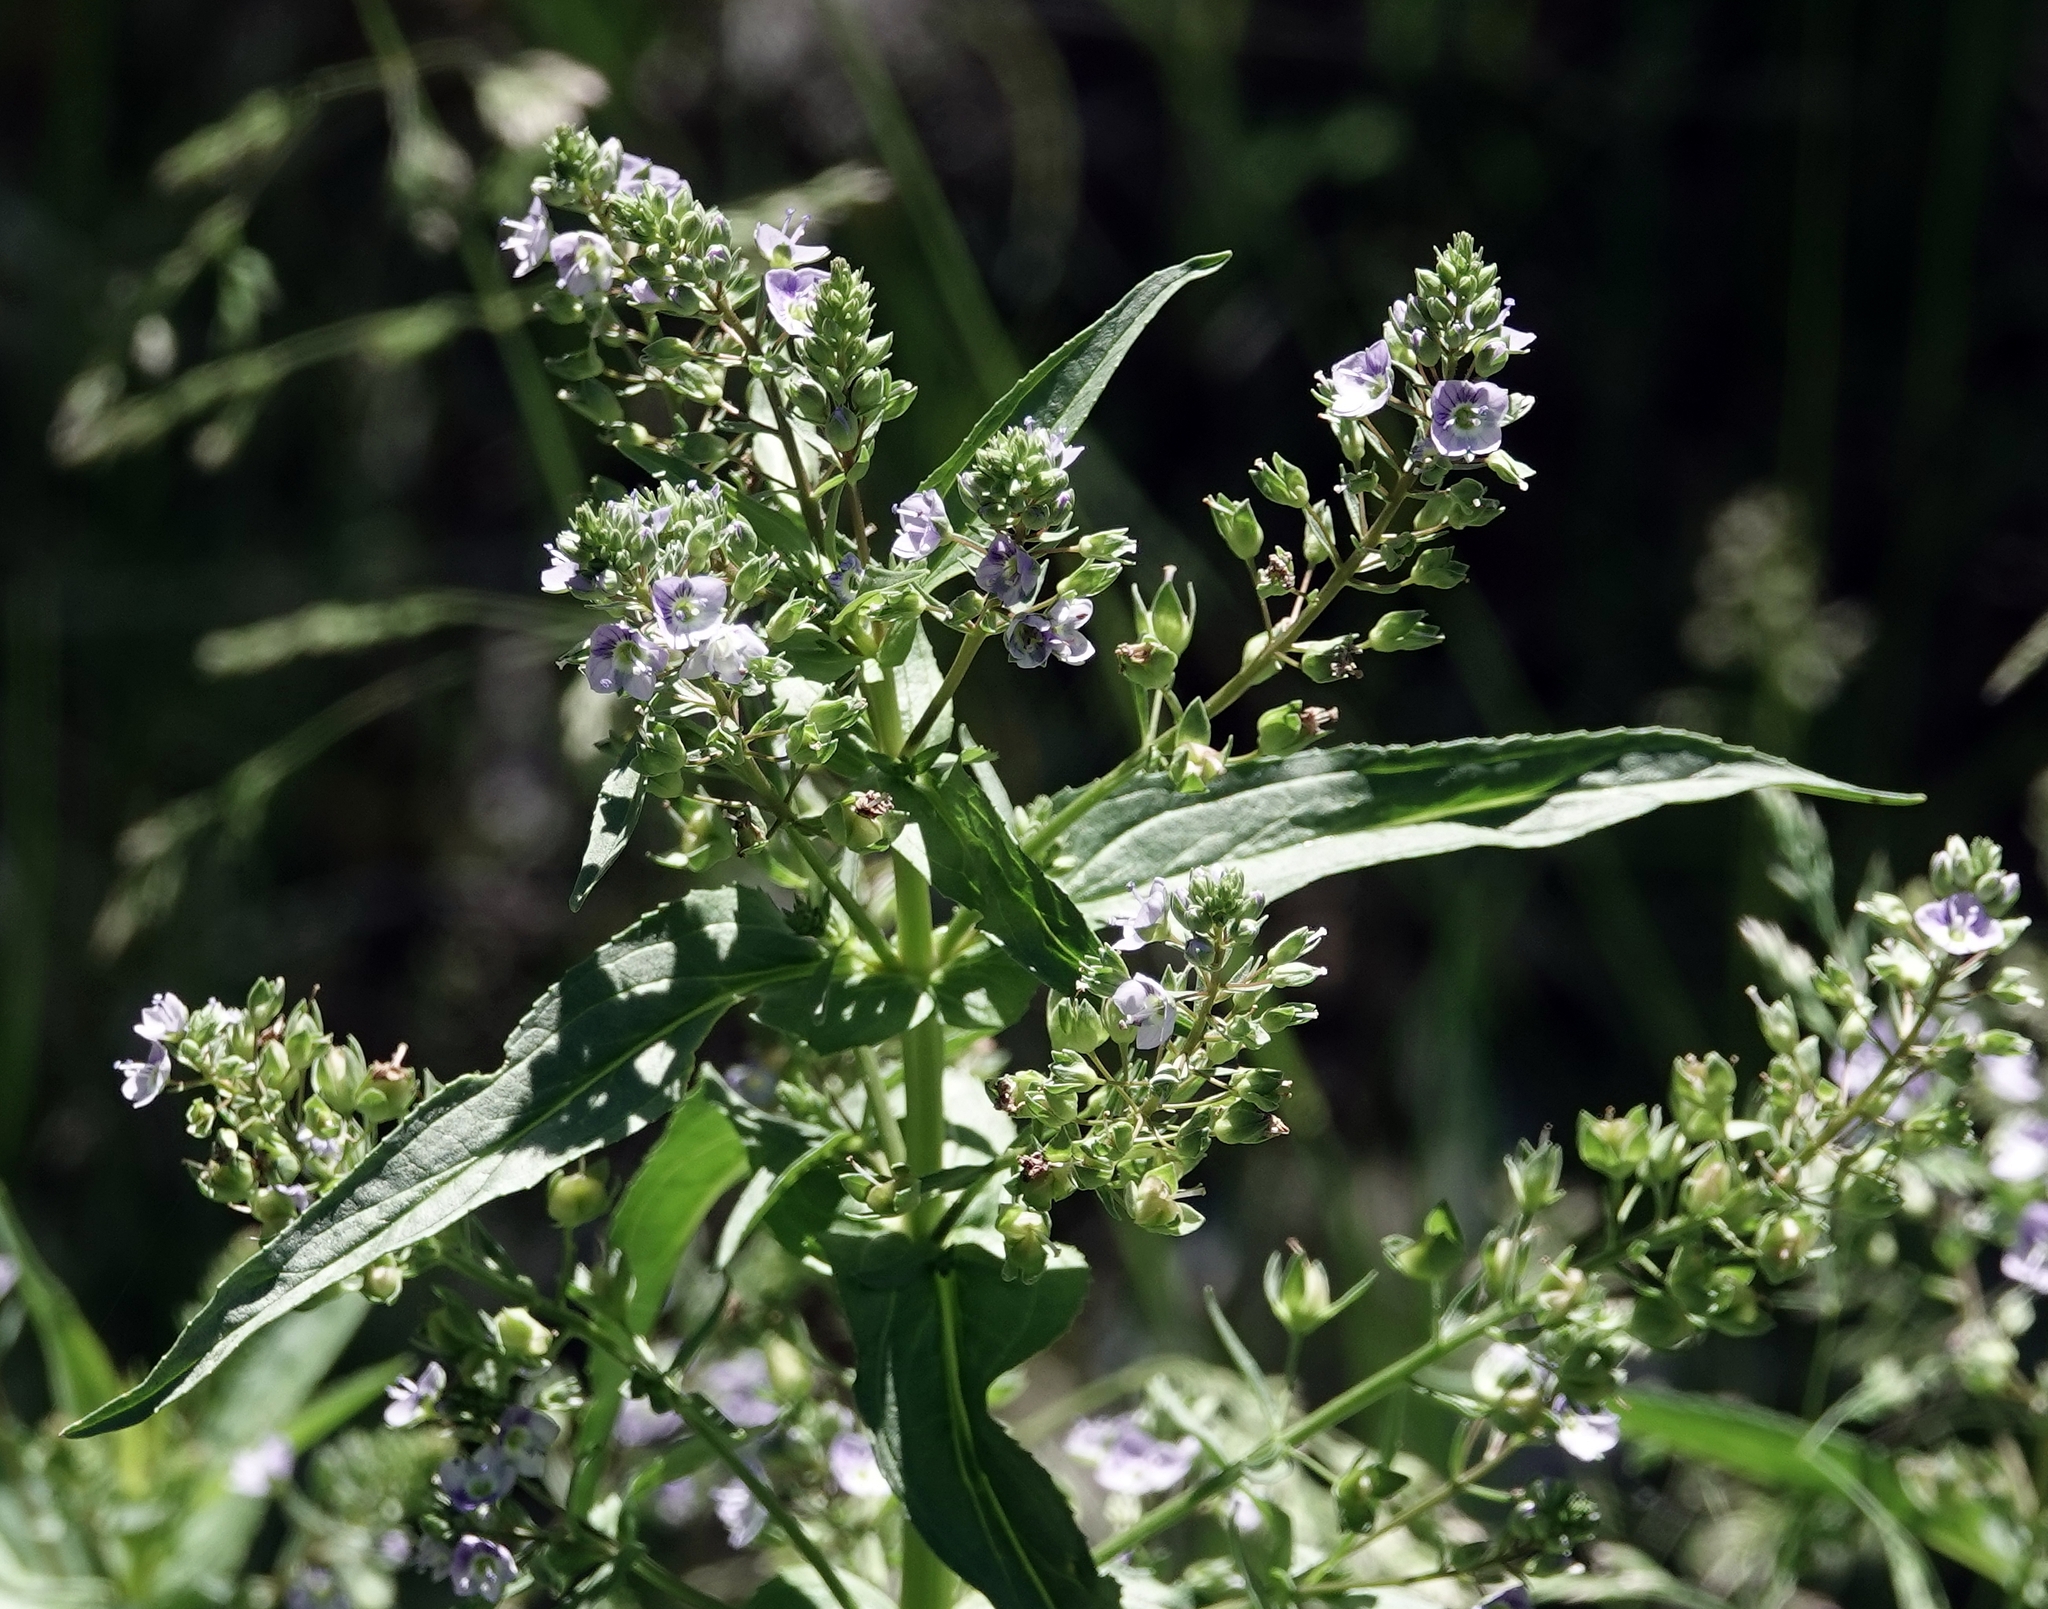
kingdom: Plantae
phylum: Tracheophyta
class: Magnoliopsida
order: Lamiales
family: Plantaginaceae
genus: Veronica
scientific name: Veronica anagallis-aquatica
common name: Water speedwell
